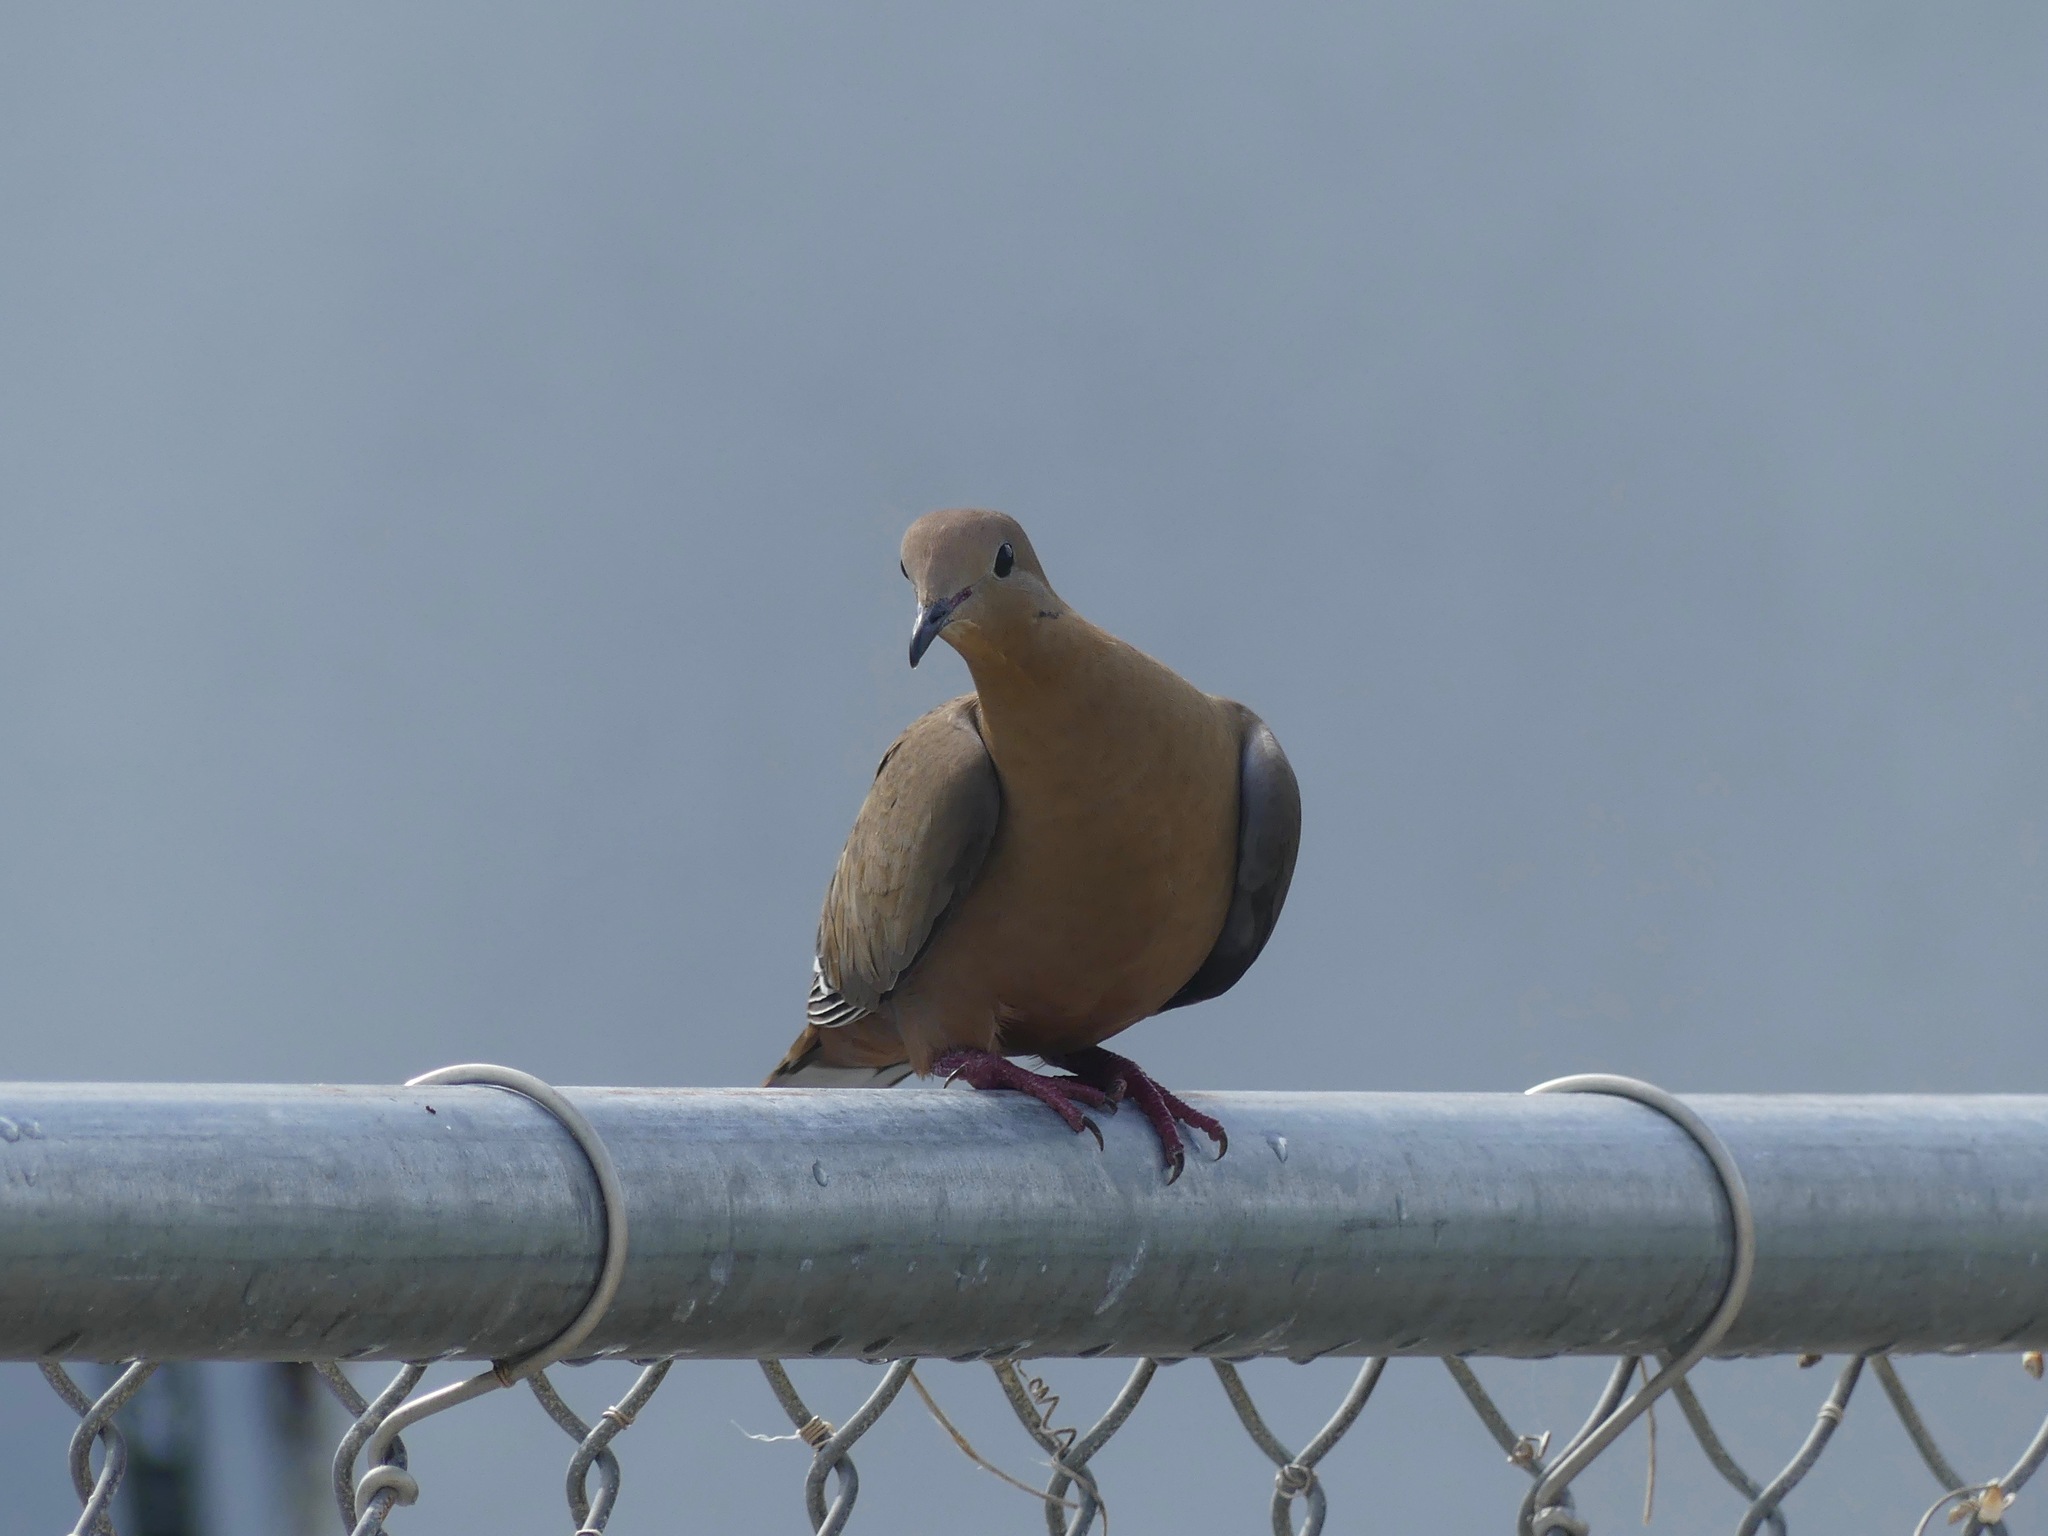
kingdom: Animalia
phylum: Chordata
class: Aves
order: Columbiformes
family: Columbidae
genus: Zenaida
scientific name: Zenaida aurita
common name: Zenaida dove
